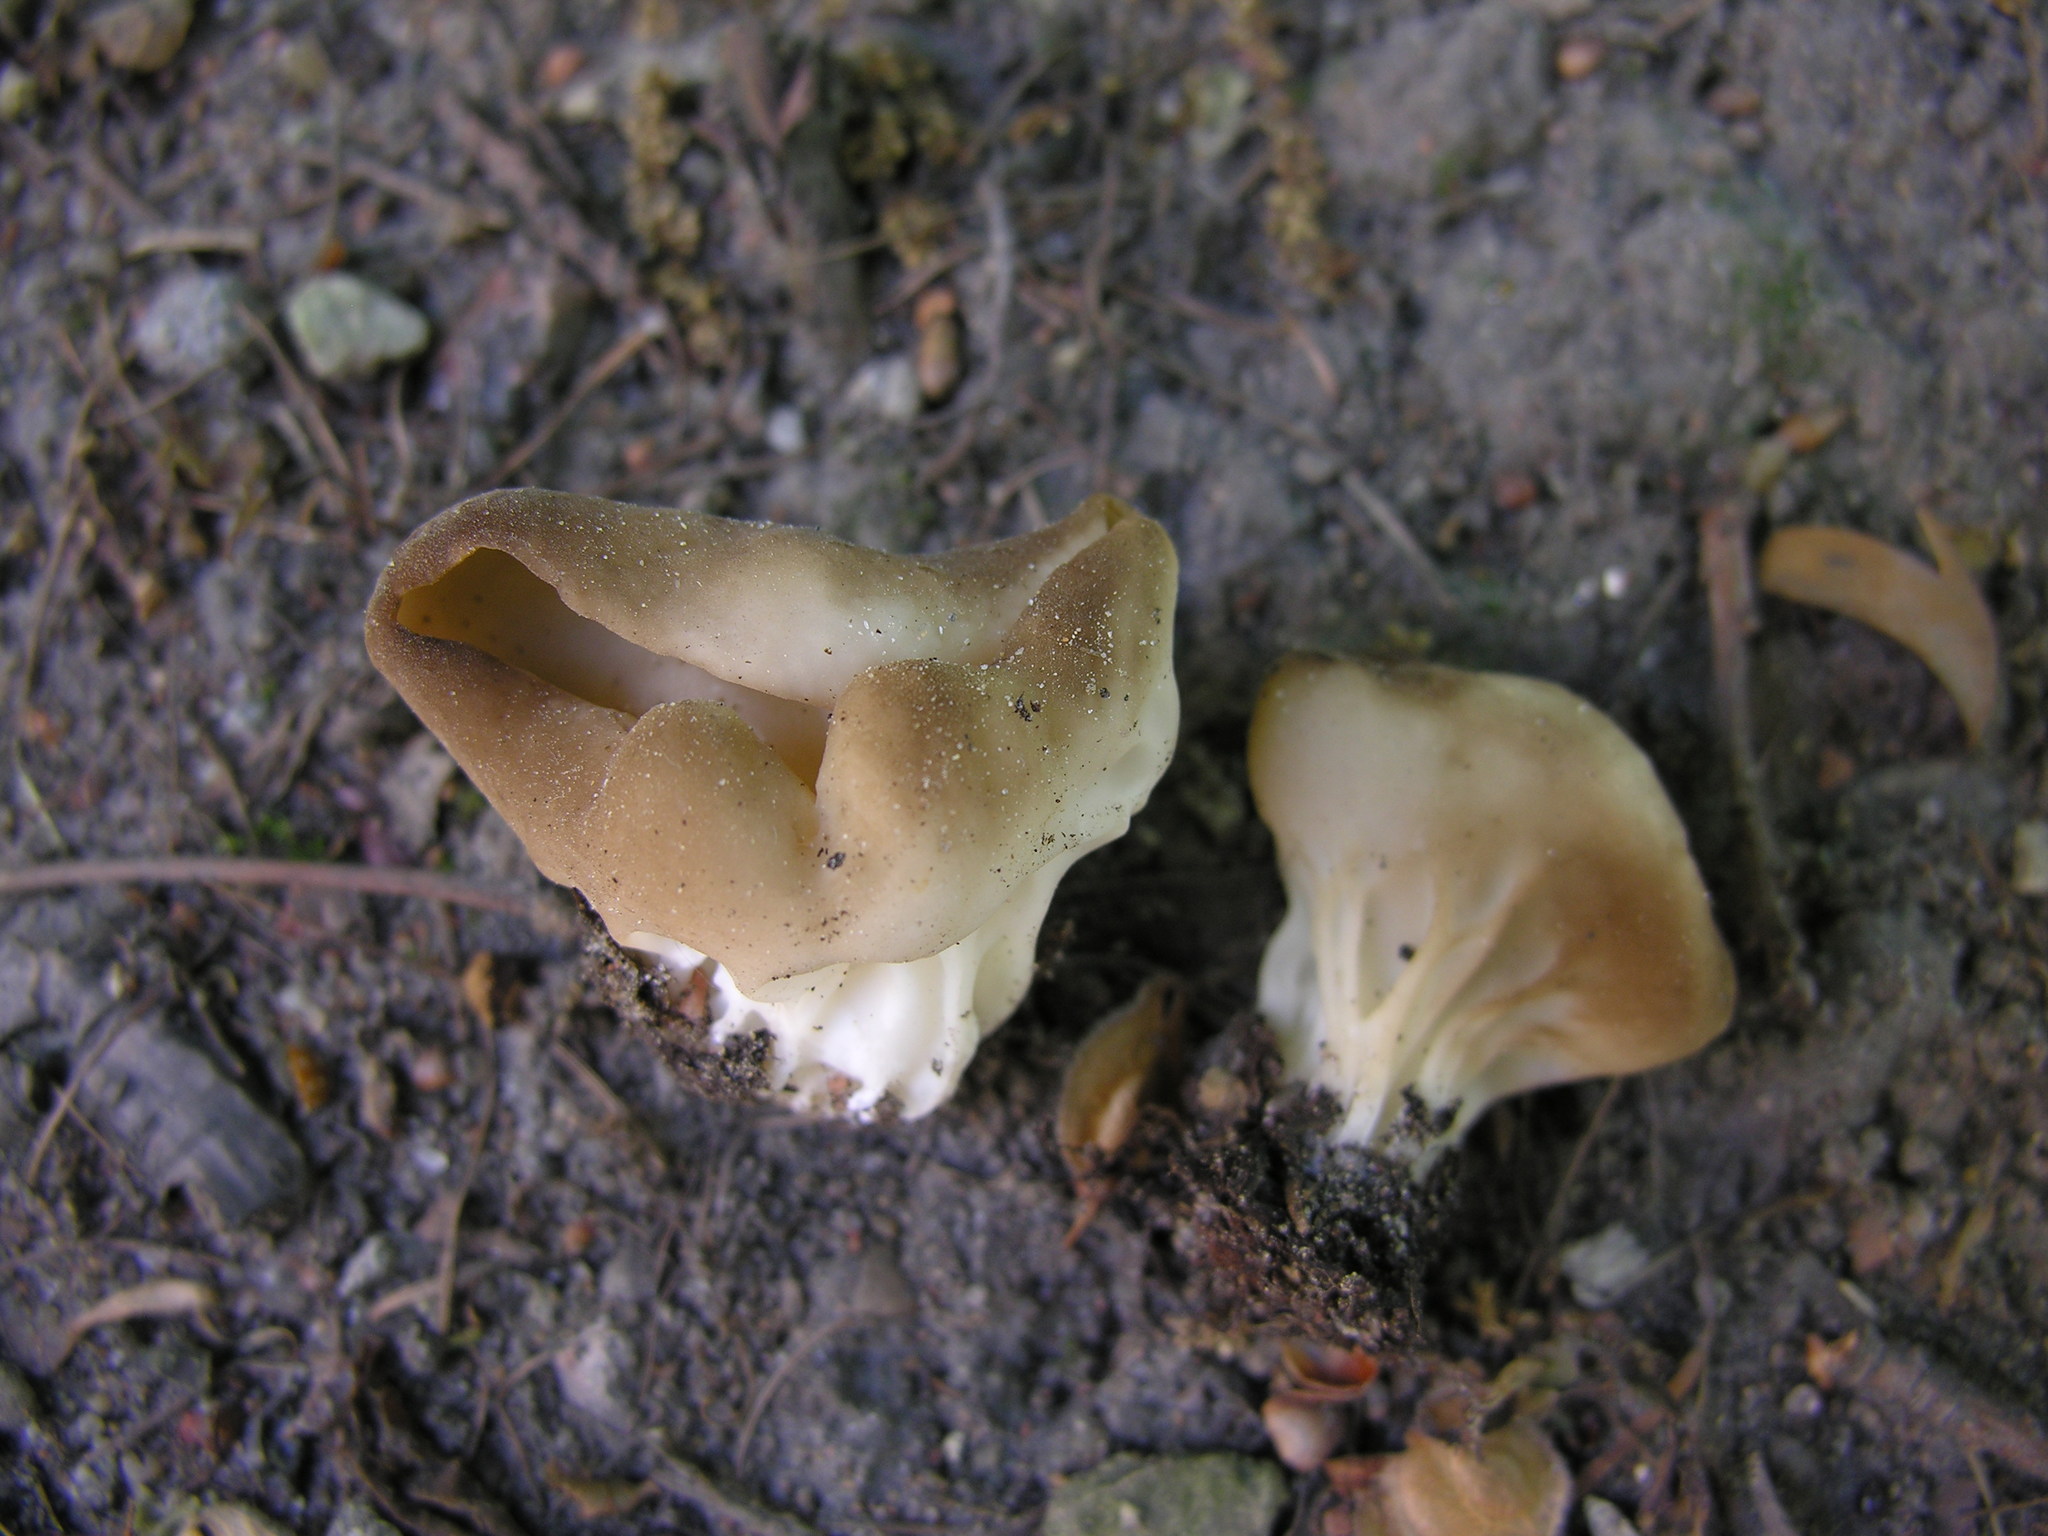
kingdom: Fungi
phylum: Ascomycota
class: Pezizomycetes
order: Pezizales
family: Helvellaceae
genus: Helvella
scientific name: Helvella acetabulum
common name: Vinegar cup
